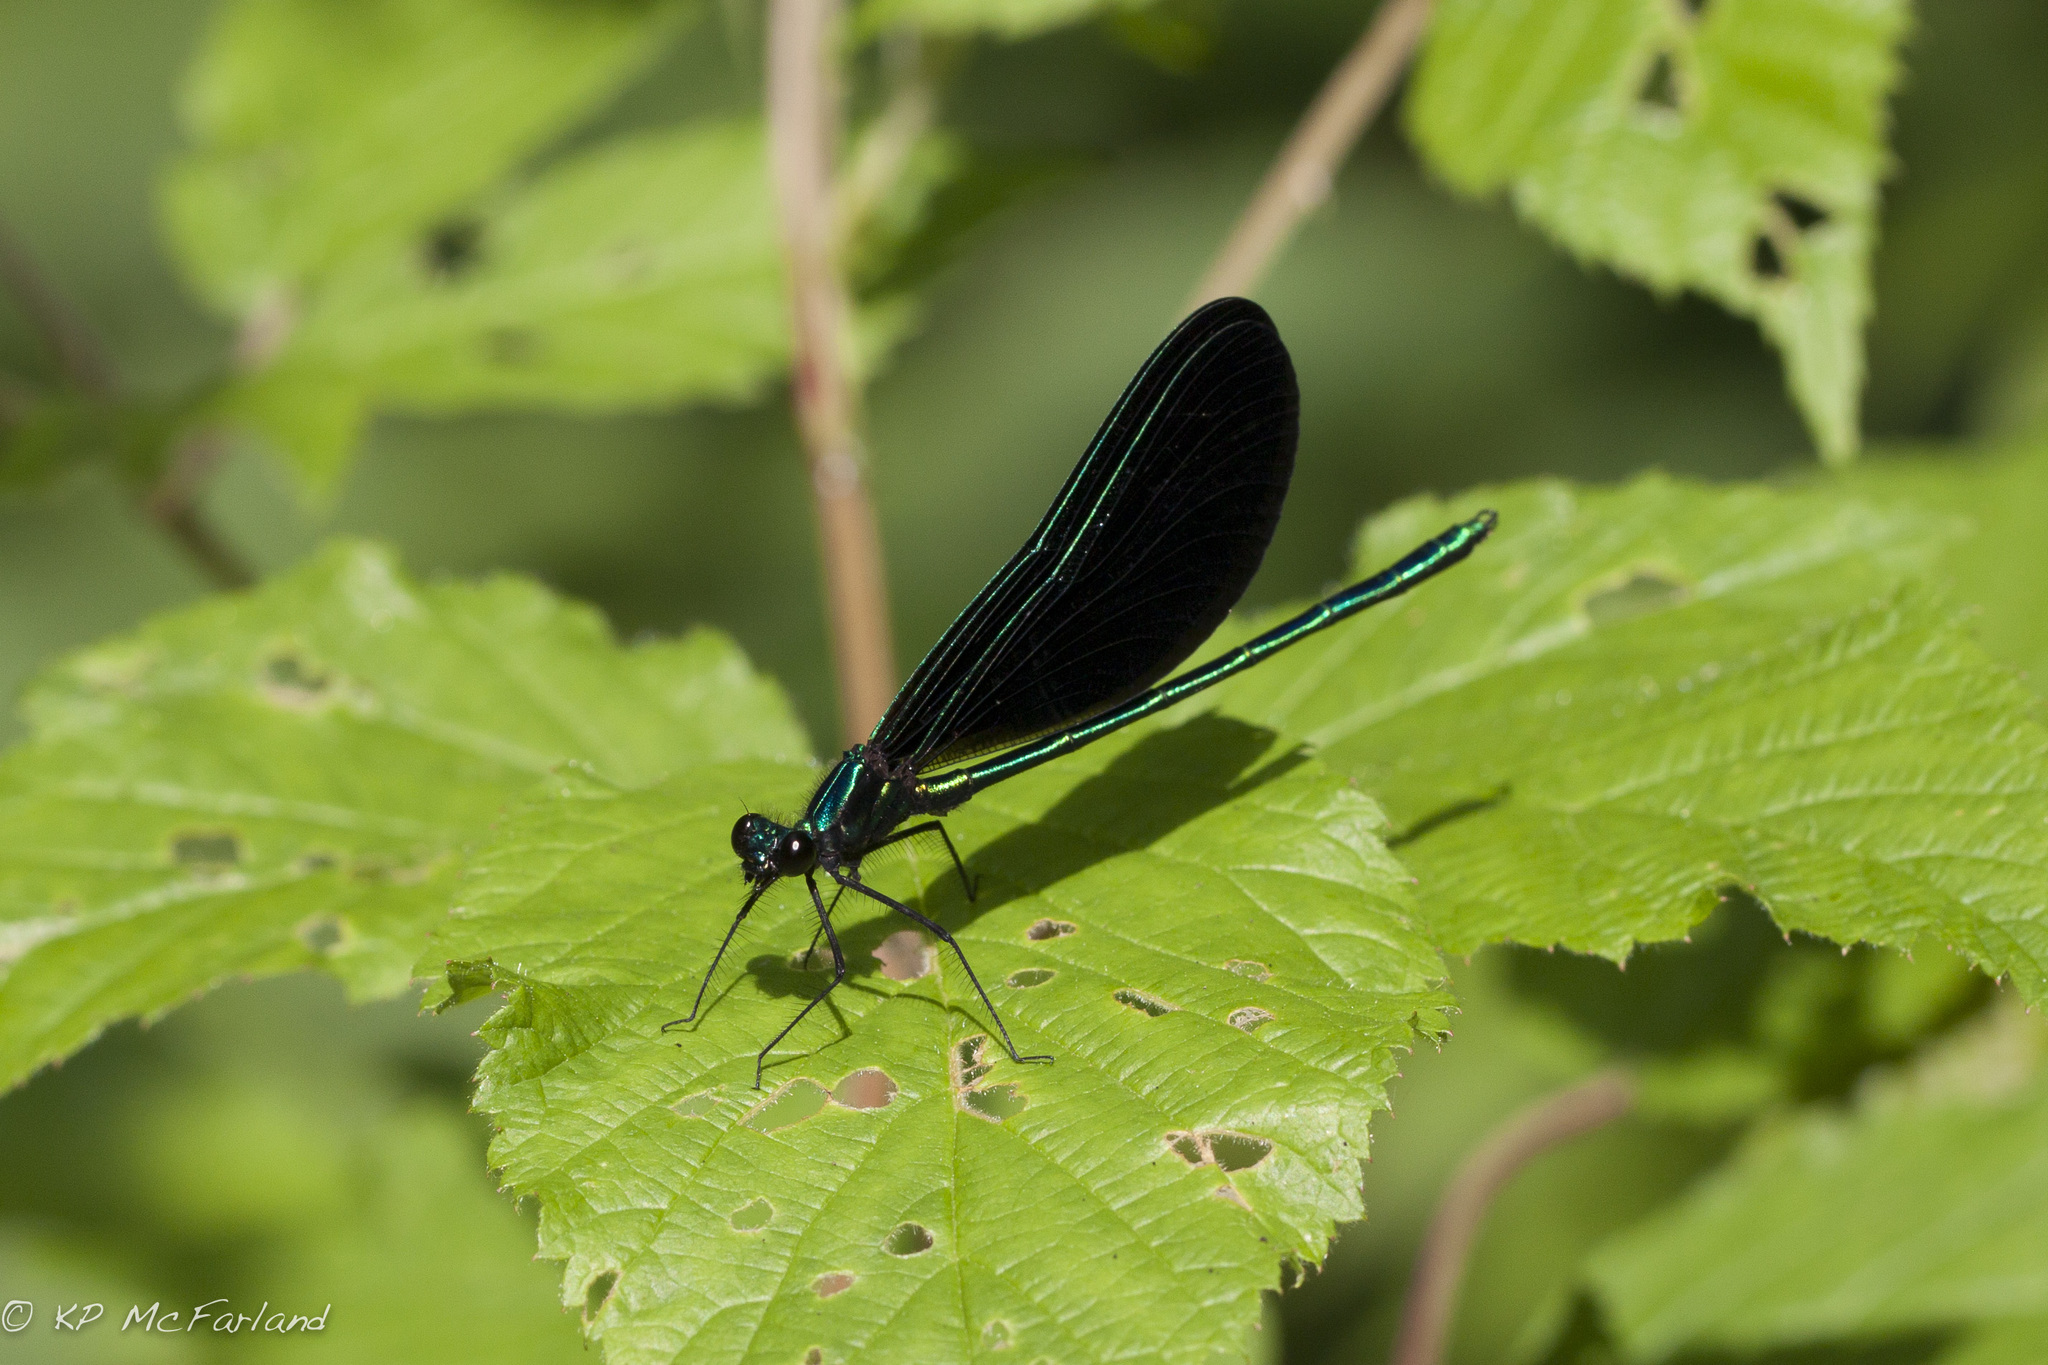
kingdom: Animalia
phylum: Arthropoda
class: Insecta
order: Odonata
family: Calopterygidae
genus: Calopteryx
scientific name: Calopteryx maculata
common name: Ebony jewelwing
